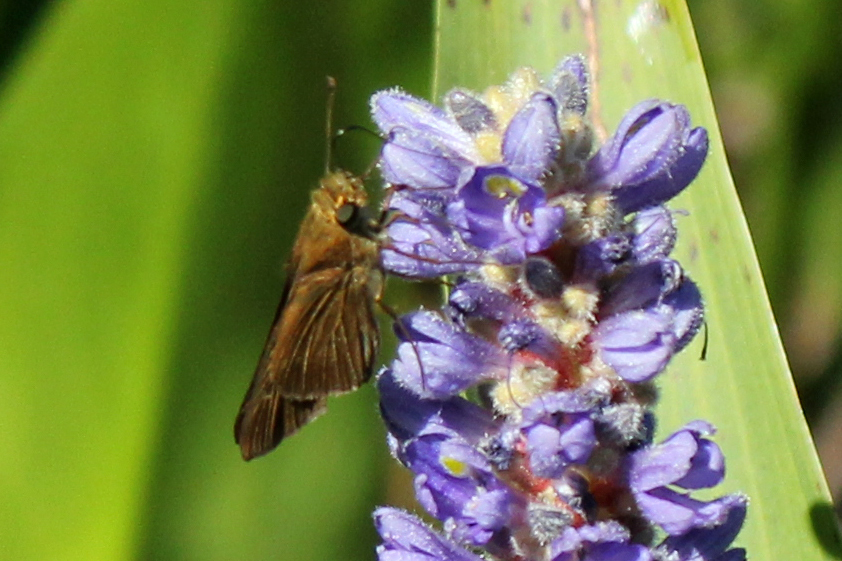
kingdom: Animalia
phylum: Arthropoda
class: Insecta
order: Lepidoptera
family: Hesperiidae
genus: Panoquina
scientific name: Panoquina ocola
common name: Ocola skipper
